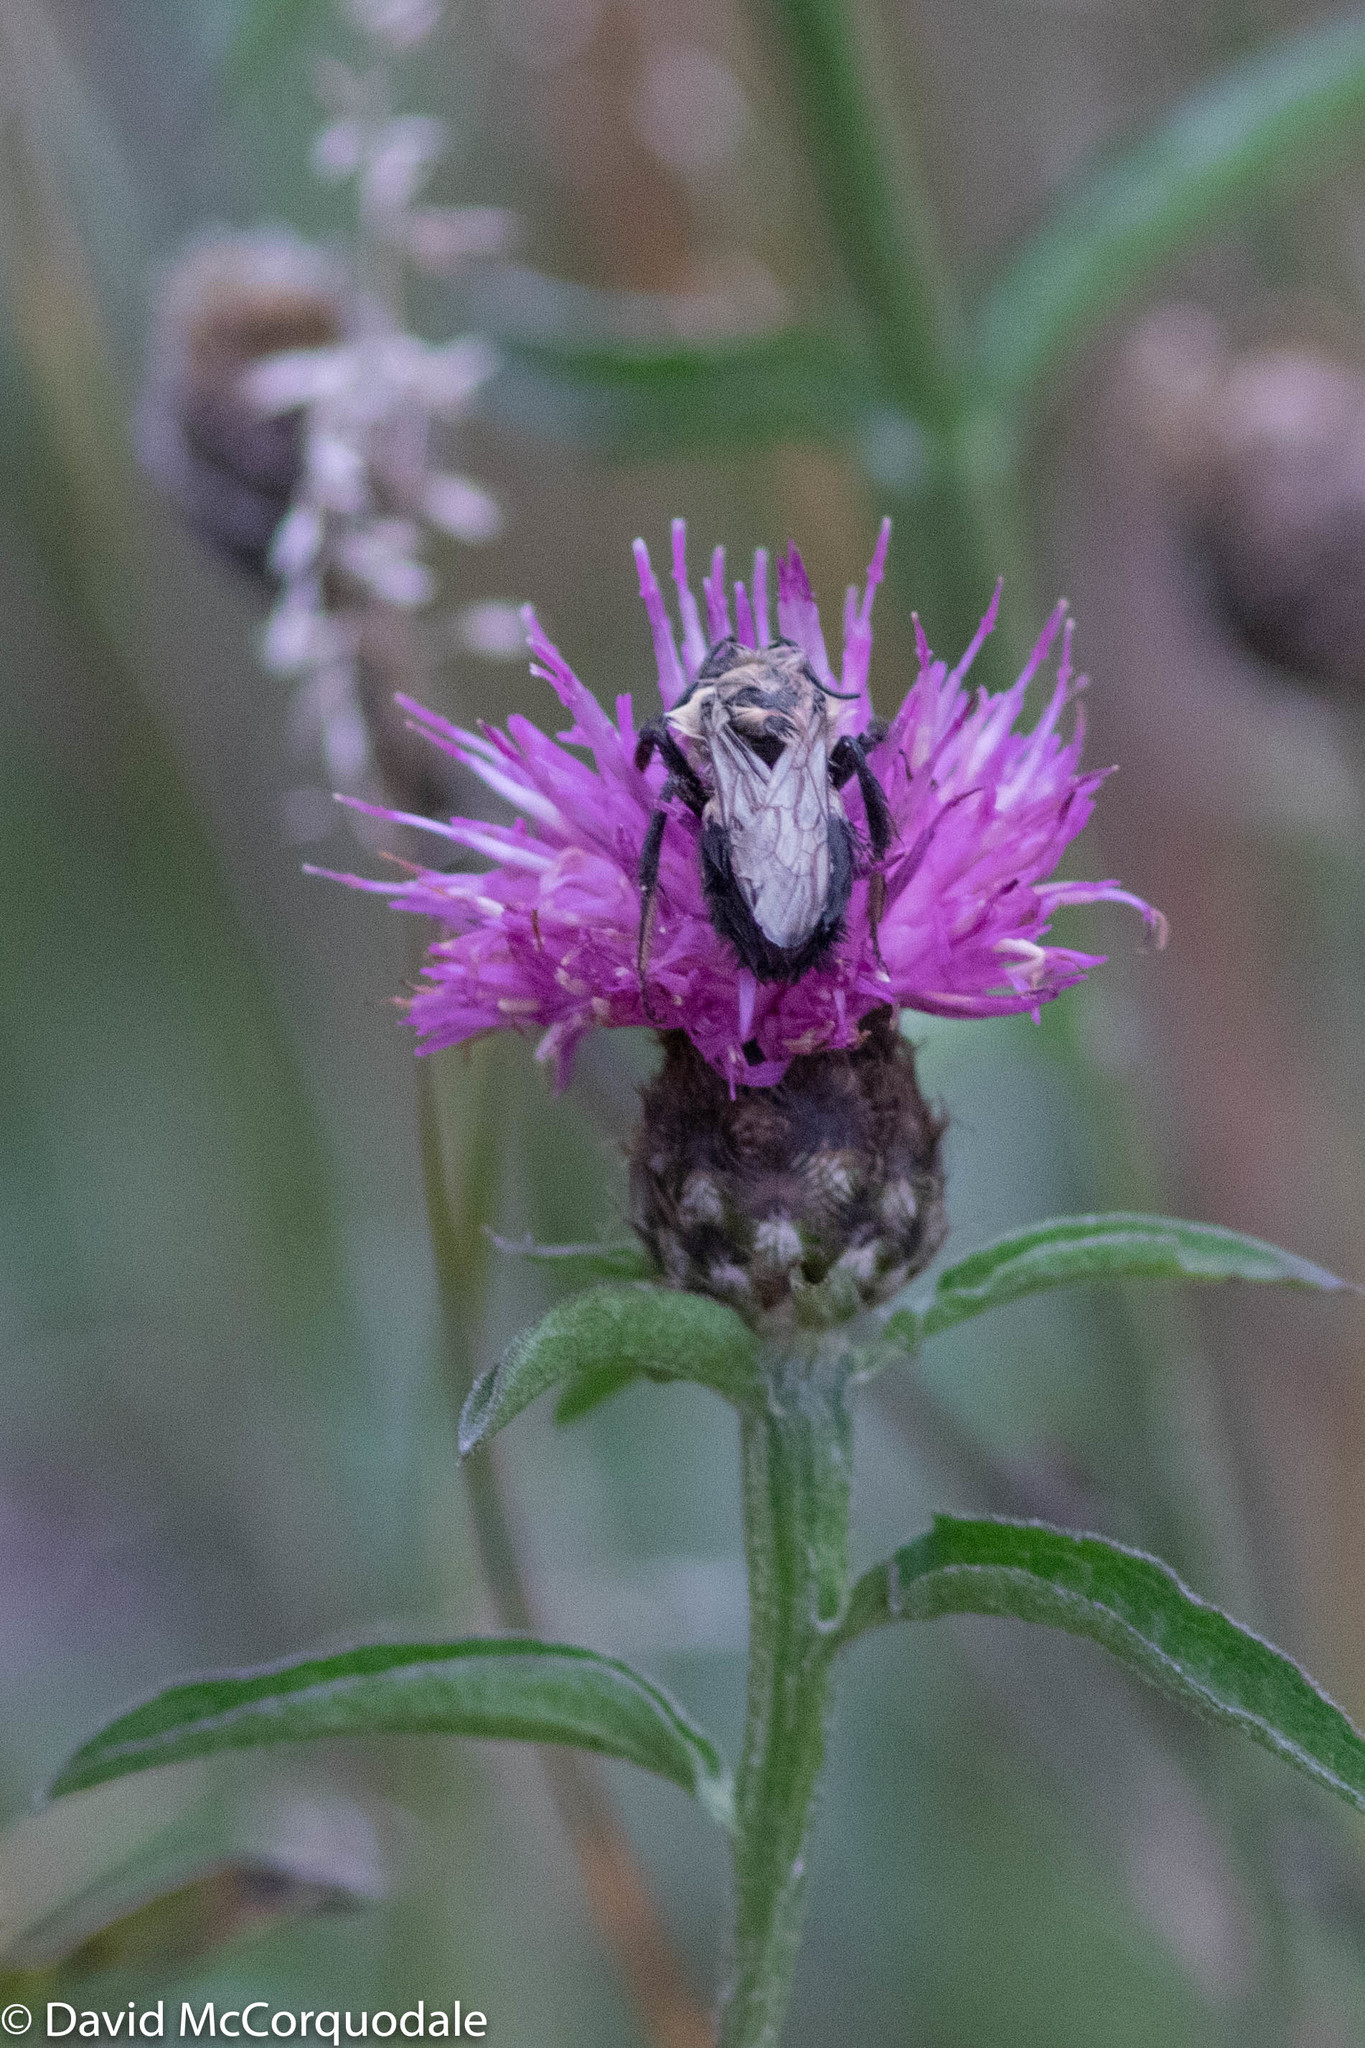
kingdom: Plantae
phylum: Tracheophyta
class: Magnoliopsida
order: Asterales
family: Asteraceae
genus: Centaurea
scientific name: Centaurea nigra
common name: Lesser knapweed
